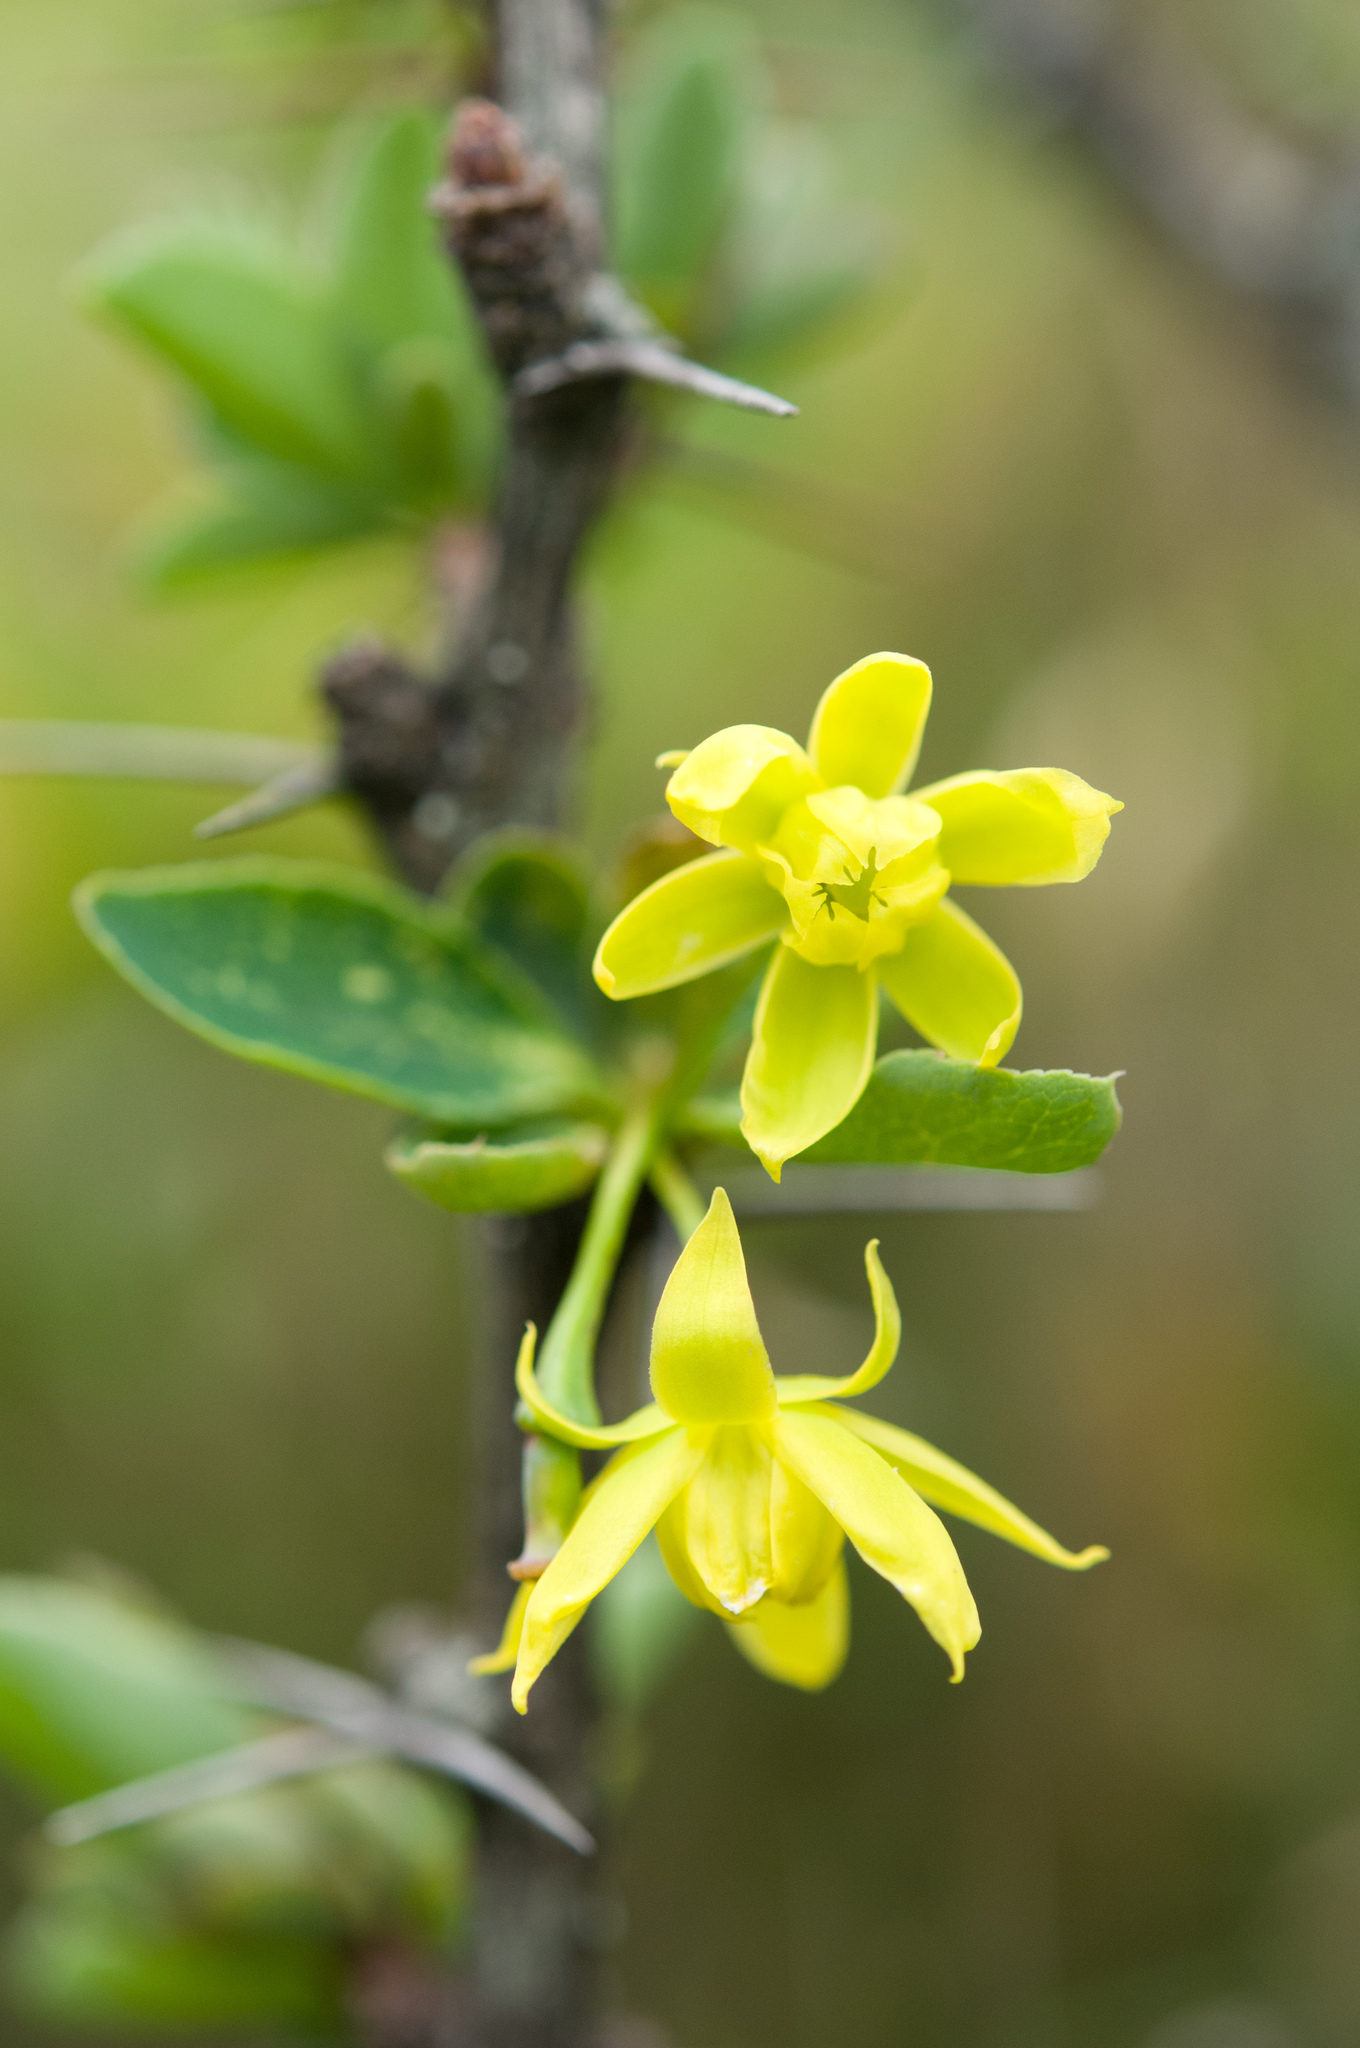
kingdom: Plantae
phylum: Tracheophyta
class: Magnoliopsida
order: Ranunculales
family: Berberidaceae
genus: Berberis
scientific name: Berberis morrisonensis
